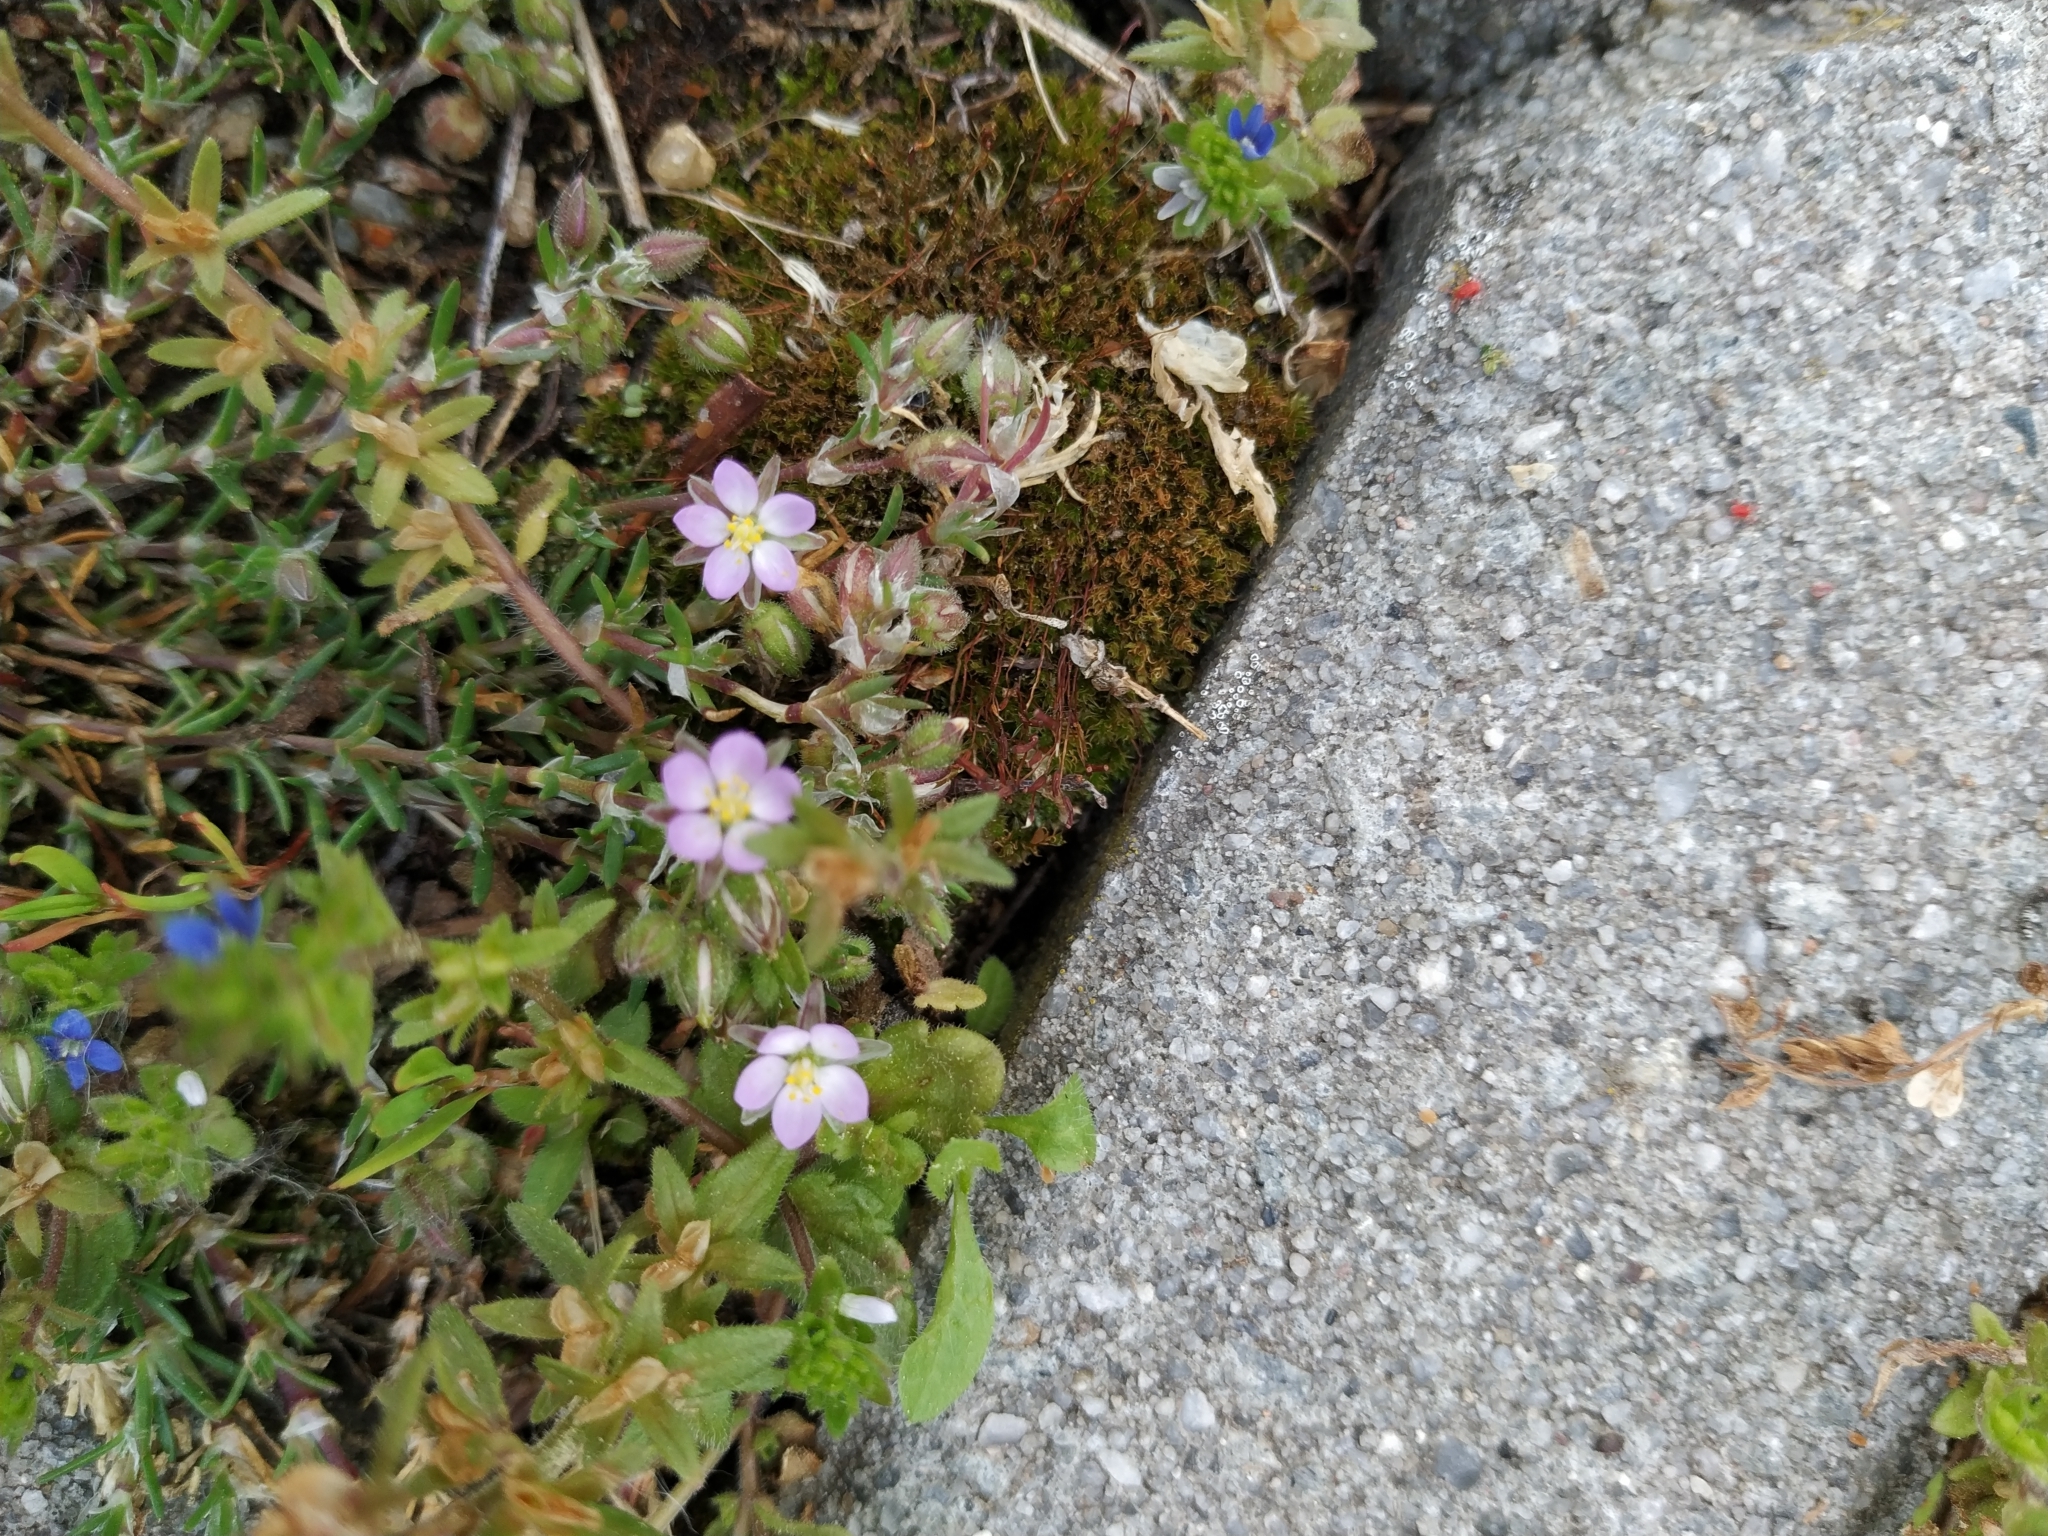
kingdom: Plantae
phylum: Tracheophyta
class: Magnoliopsida
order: Caryophyllales
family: Caryophyllaceae
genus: Spergularia
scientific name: Spergularia rubra
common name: Red sand-spurrey
